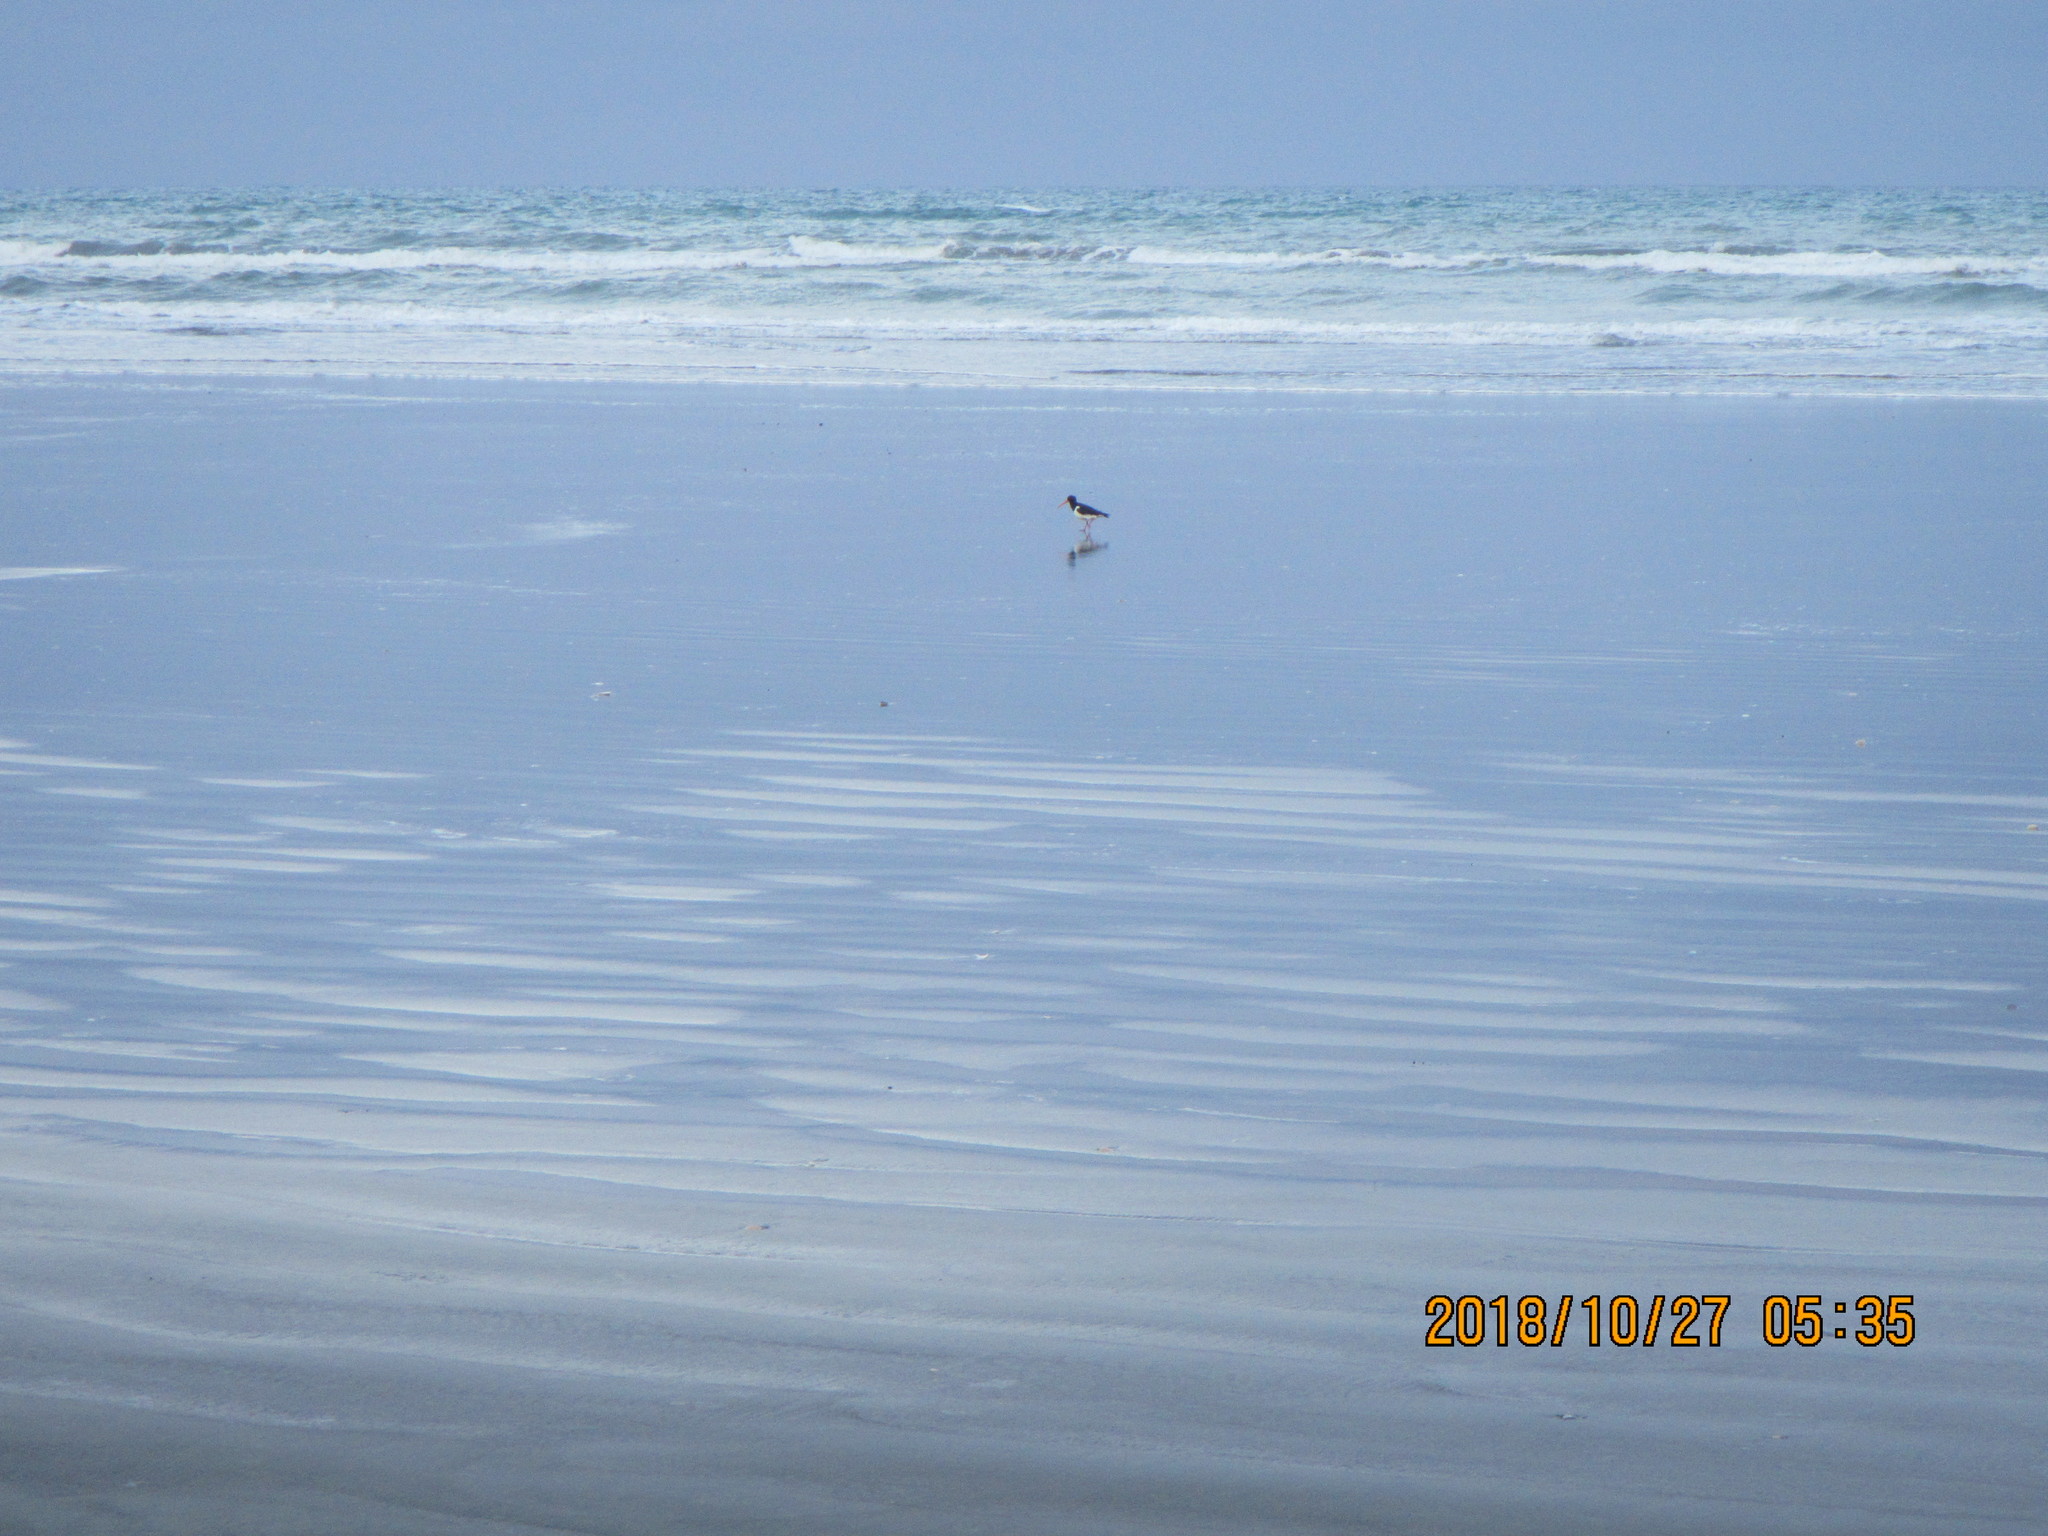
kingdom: Animalia
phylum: Chordata
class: Aves
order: Charadriiformes
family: Haematopodidae
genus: Haematopus
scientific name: Haematopus finschi
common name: South island oystercatcher
